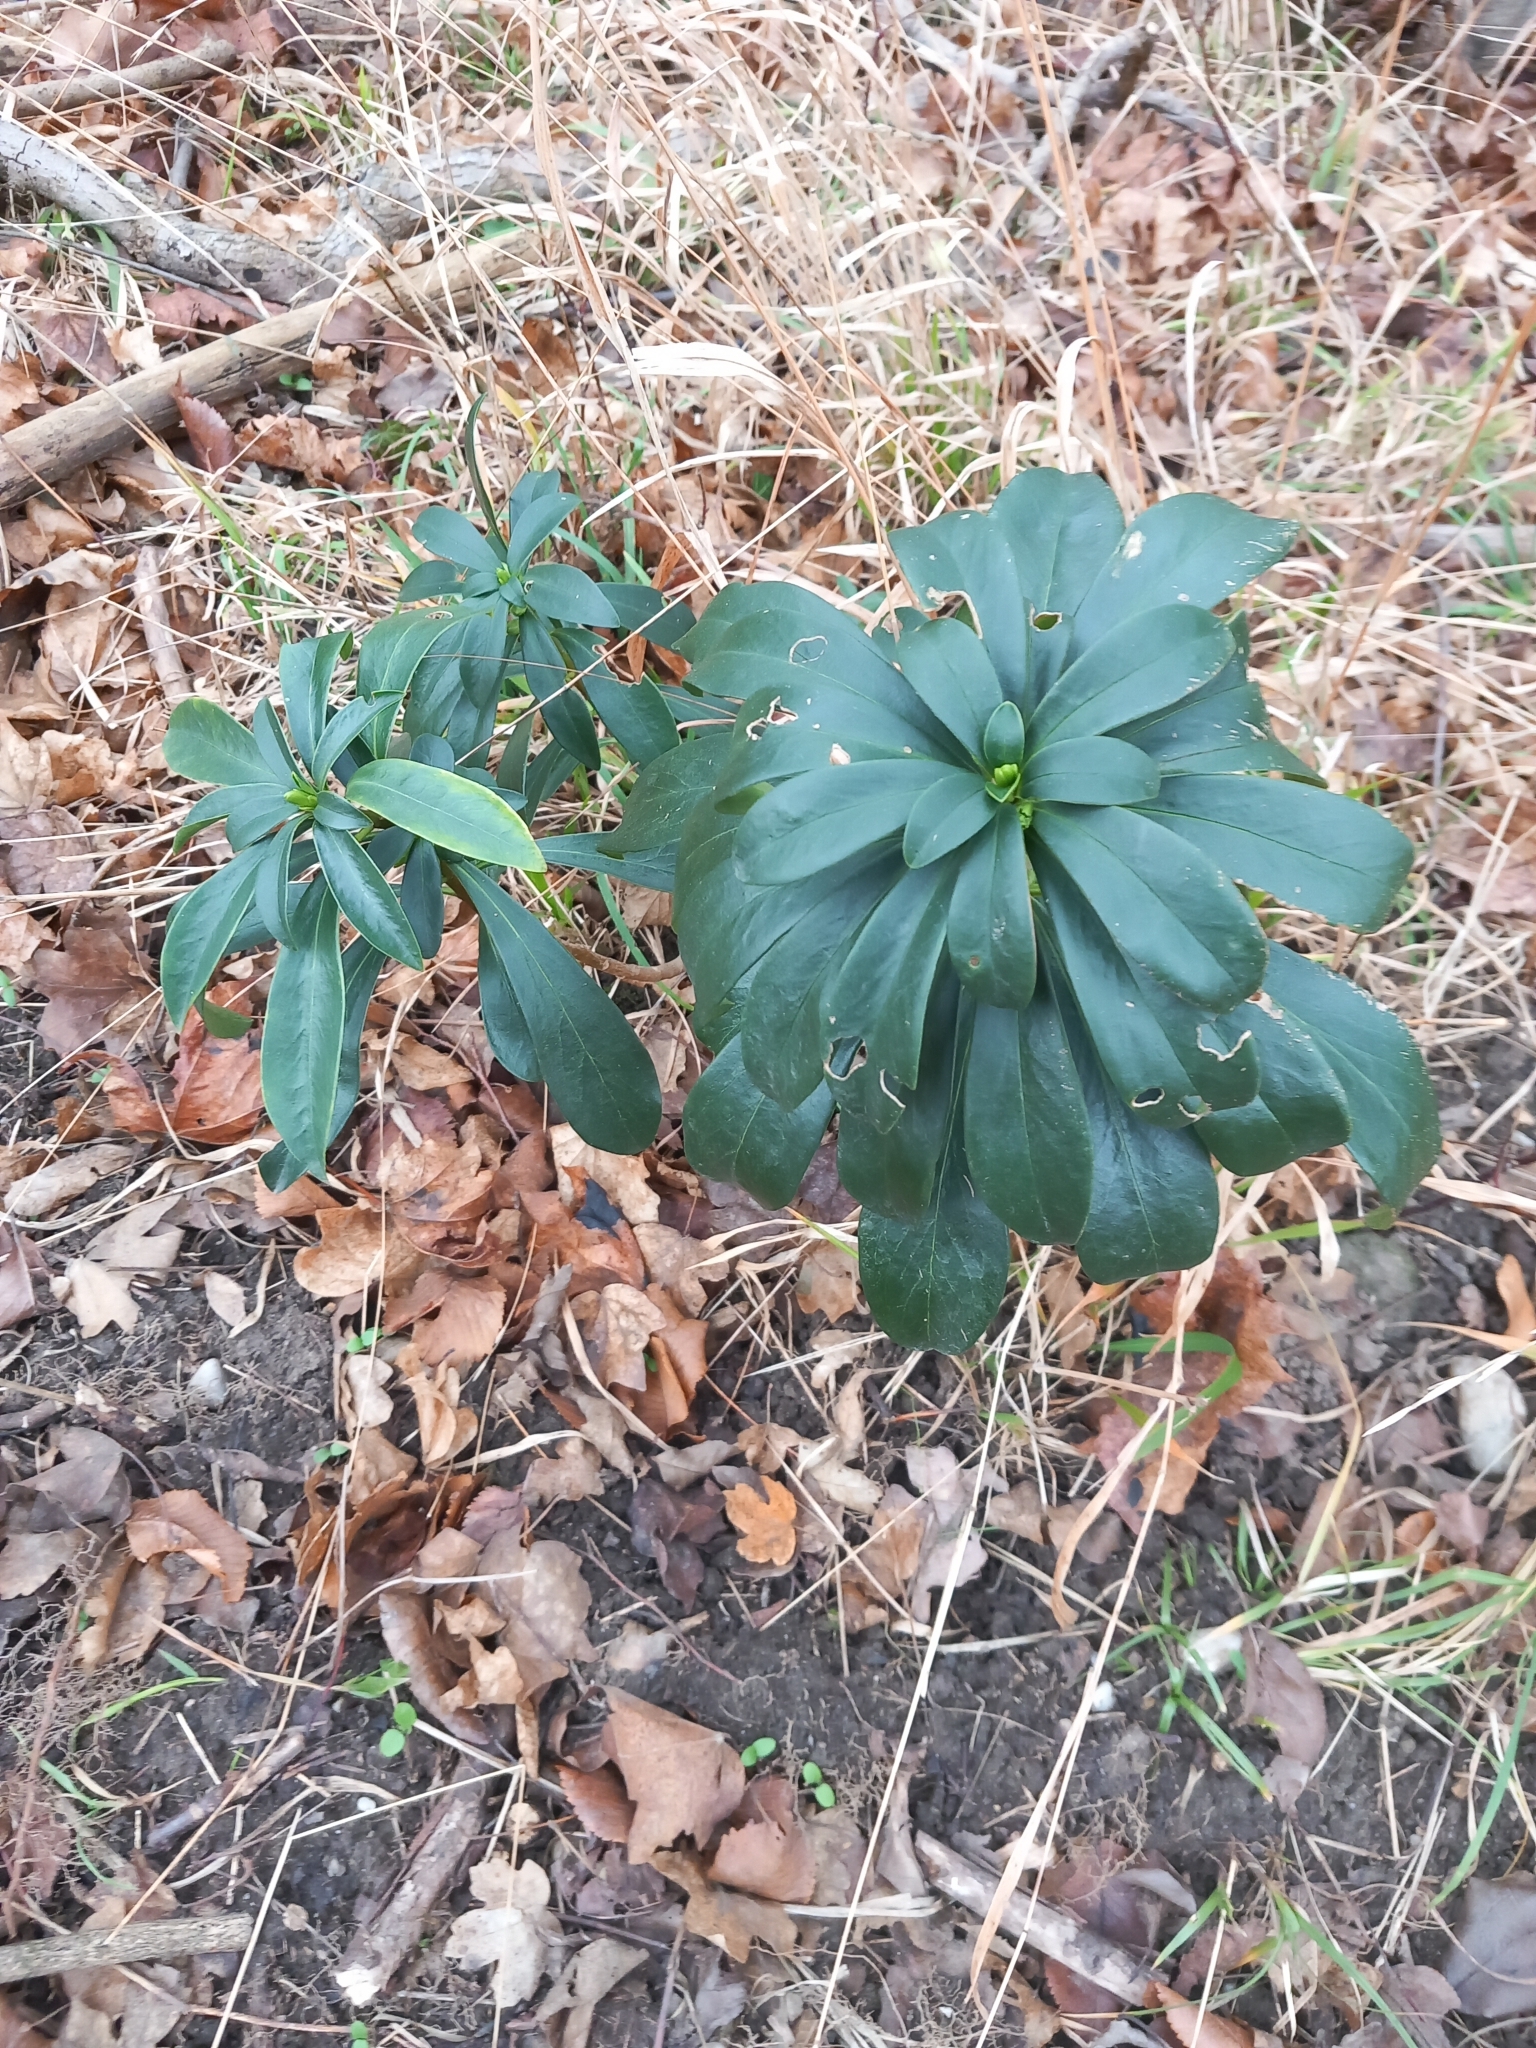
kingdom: Plantae
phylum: Tracheophyta
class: Magnoliopsida
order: Malvales
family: Thymelaeaceae
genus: Daphne
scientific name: Daphne laureola
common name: Spurge-laurel
